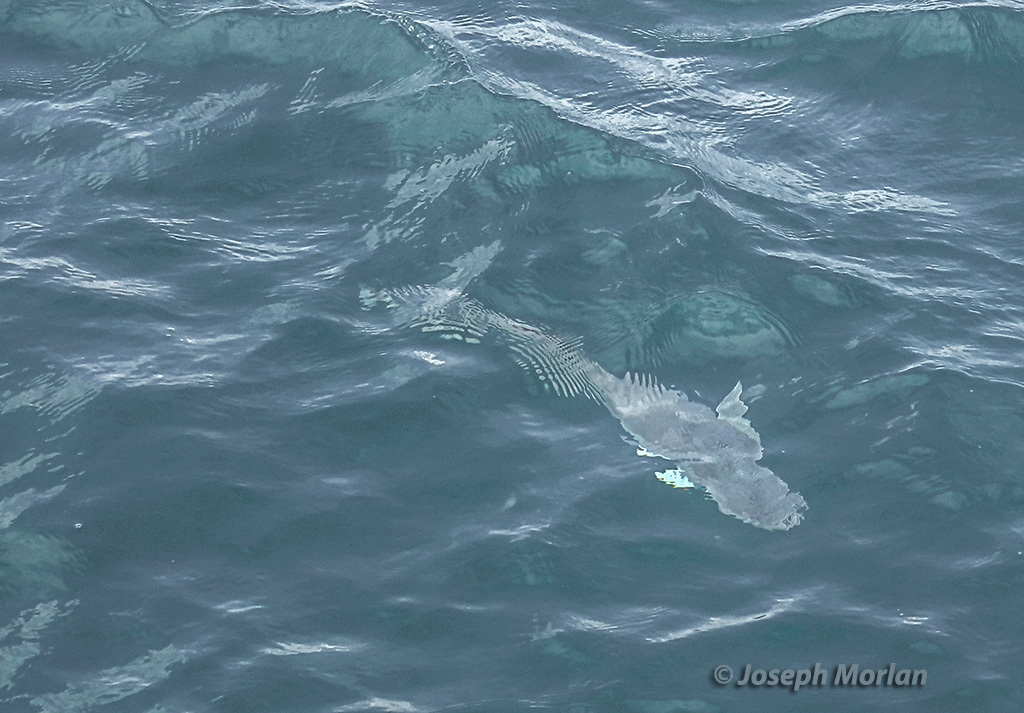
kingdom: Animalia
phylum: Chordata
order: Perciformes
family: Echeneidae
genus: Echeneis
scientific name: Echeneis naucrates
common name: Sharksucker
